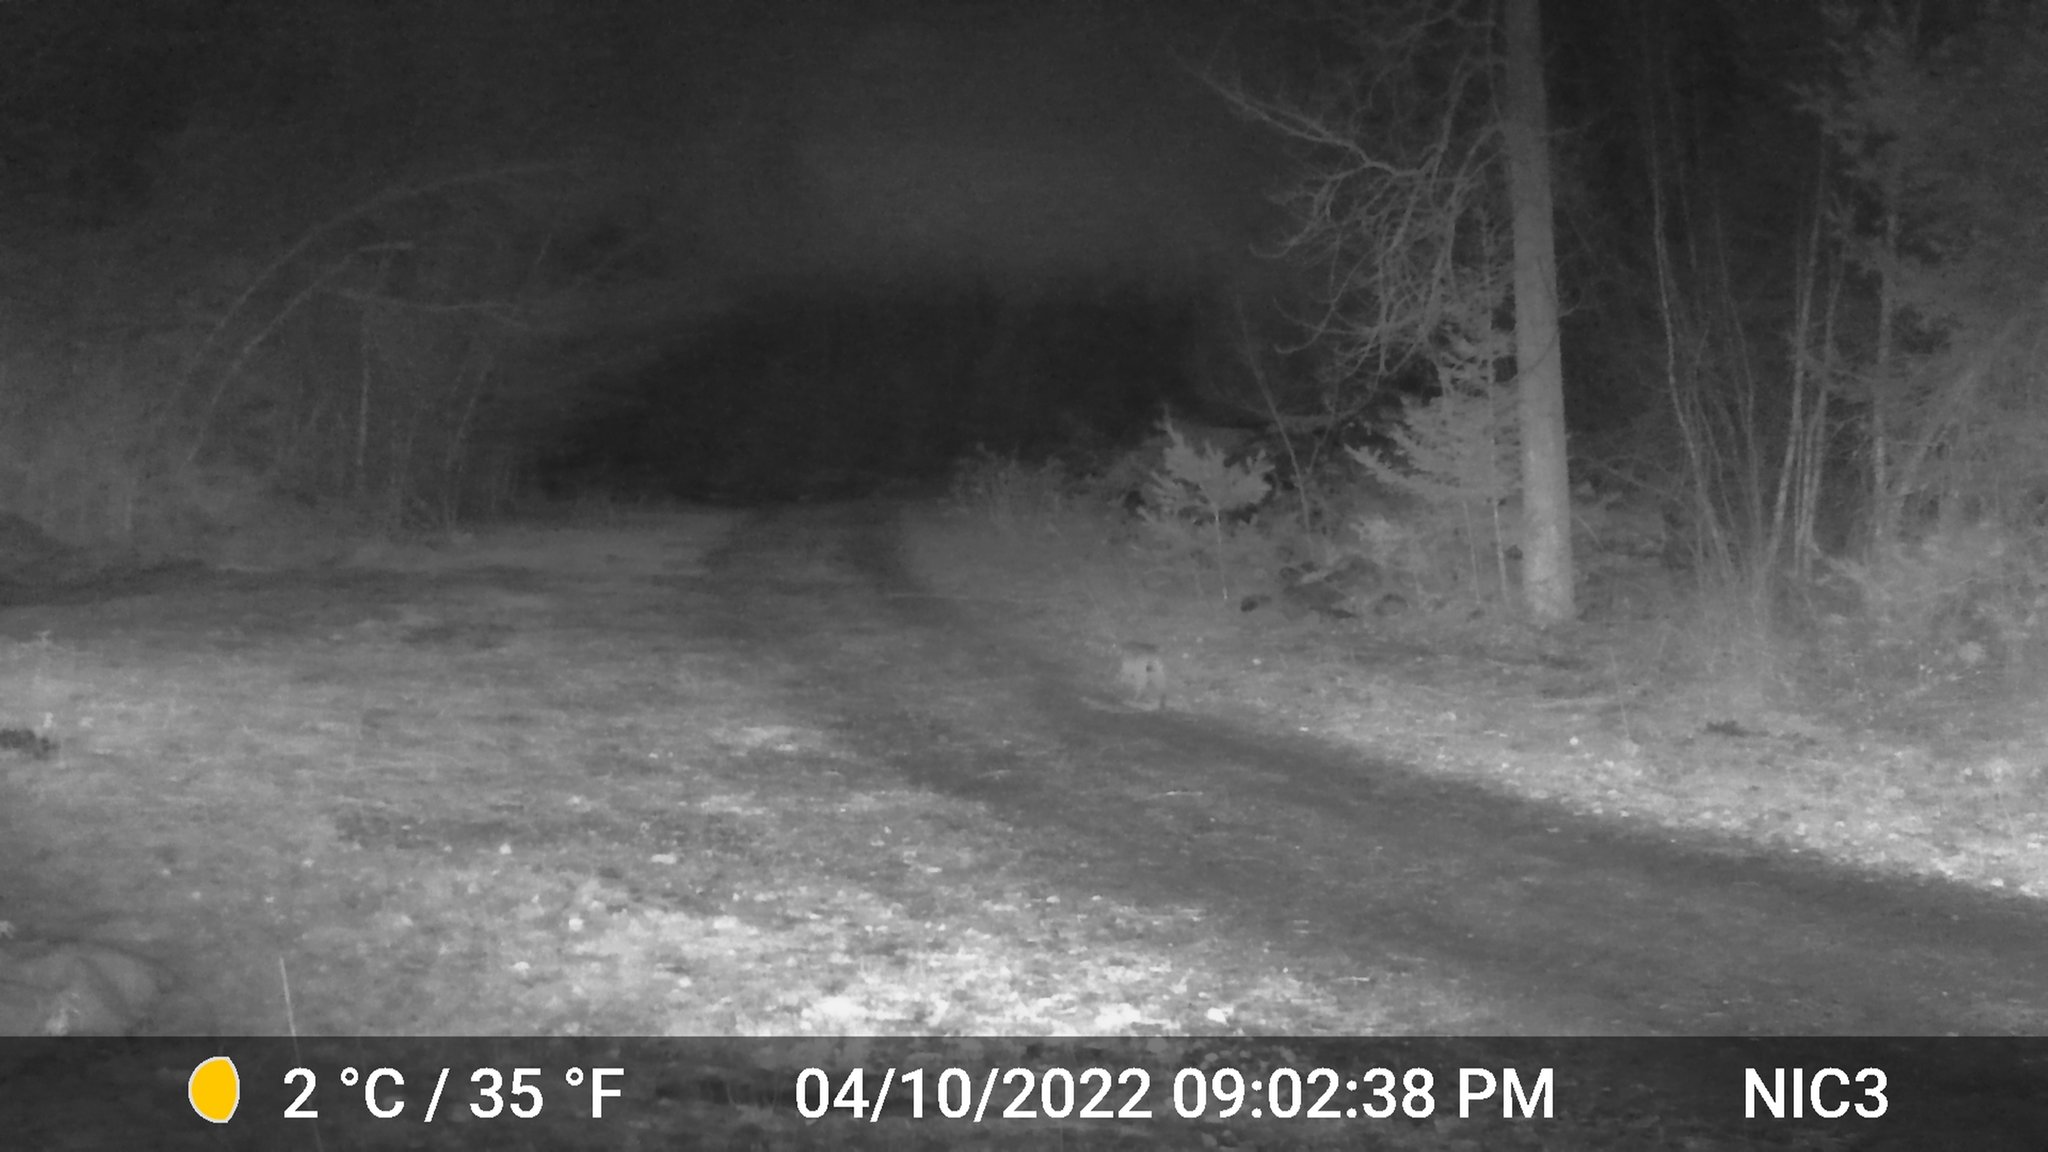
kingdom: Animalia
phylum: Chordata
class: Mammalia
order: Carnivora
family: Felidae
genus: Lynx
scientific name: Lynx rufus
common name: Bobcat
